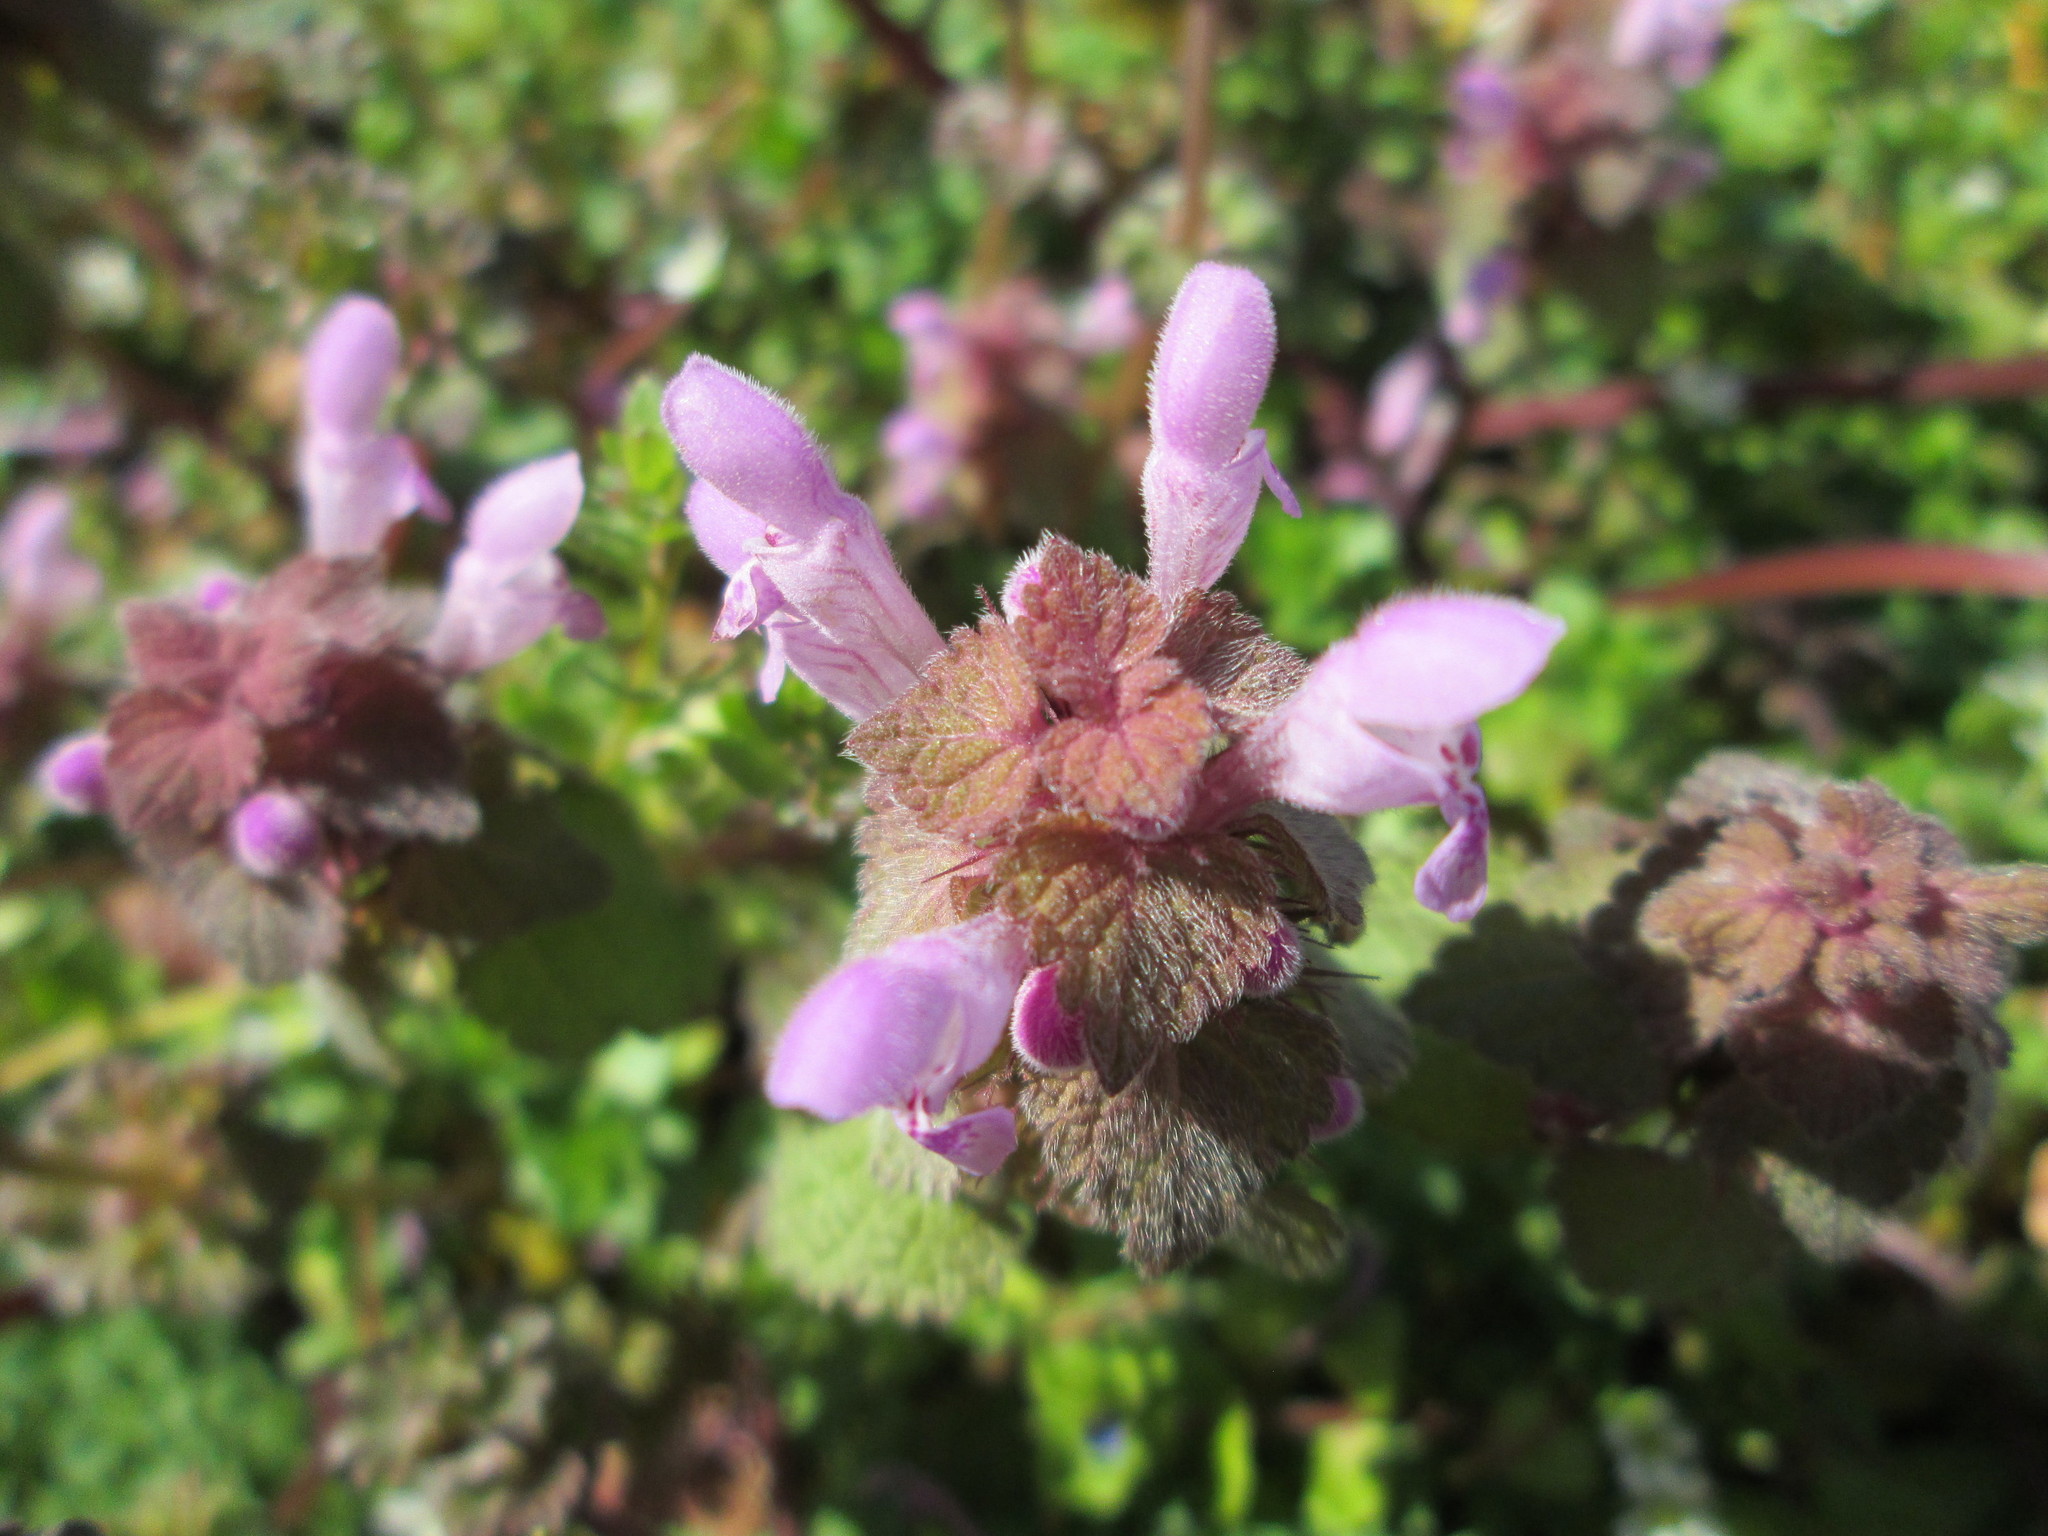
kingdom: Plantae
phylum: Tracheophyta
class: Magnoliopsida
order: Lamiales
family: Lamiaceae
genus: Lamium
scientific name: Lamium purpureum
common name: Red dead-nettle
